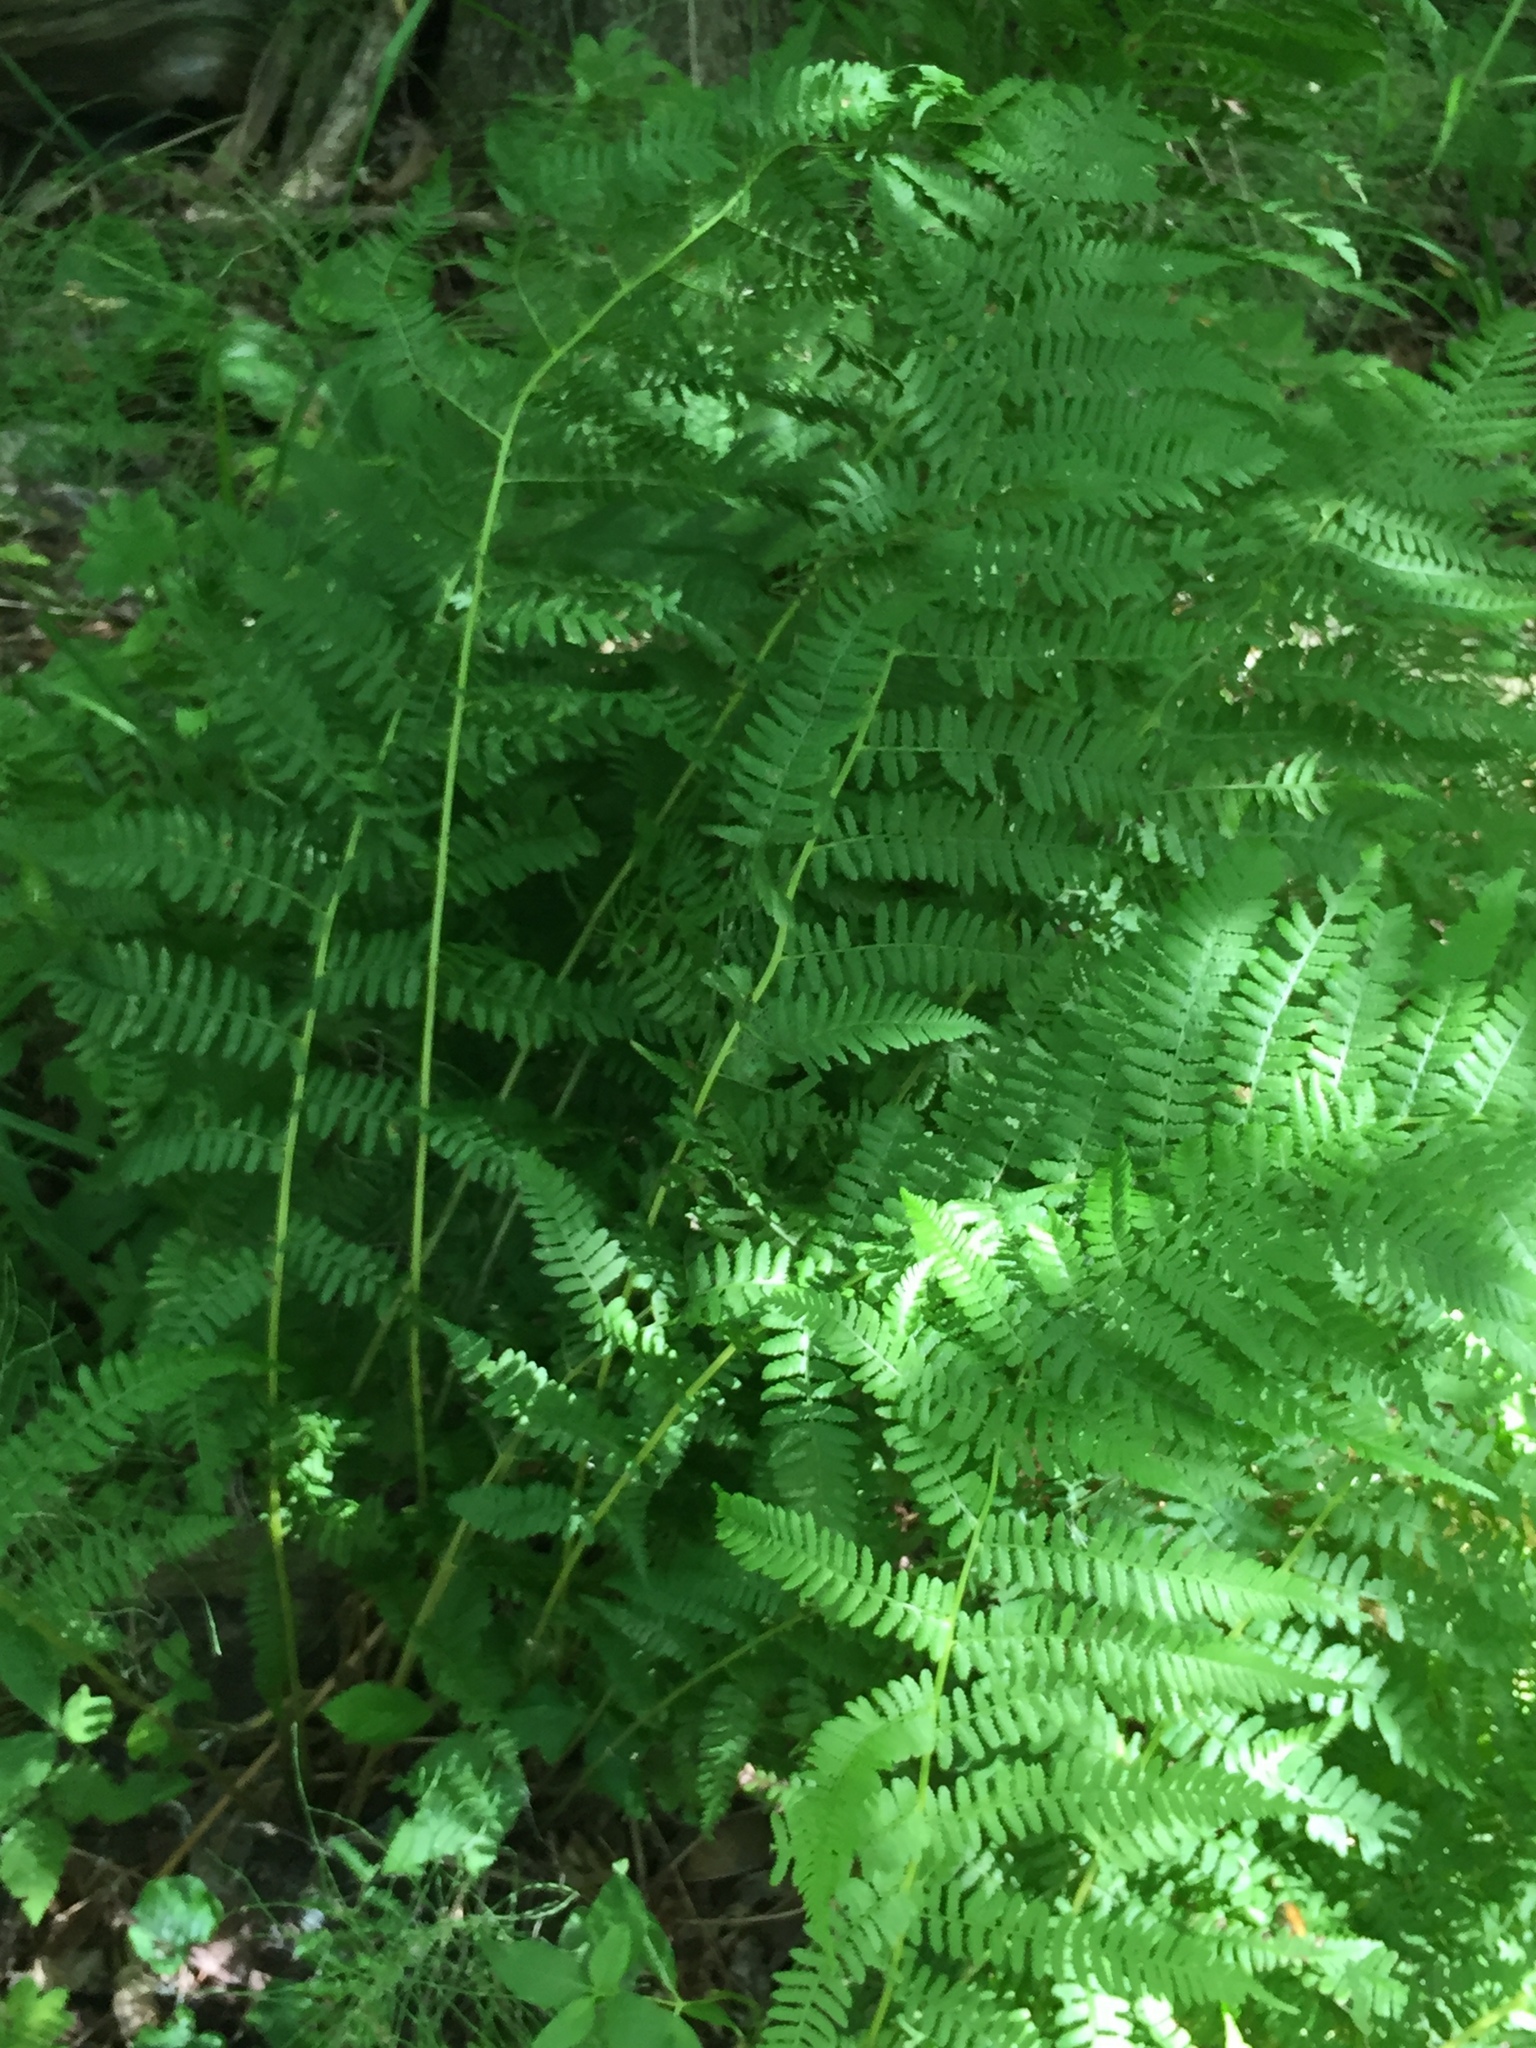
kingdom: Plantae
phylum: Tracheophyta
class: Polypodiopsida
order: Polypodiales
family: Athyriaceae
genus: Athyrium
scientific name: Athyrium angustum
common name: Northern lady fern
